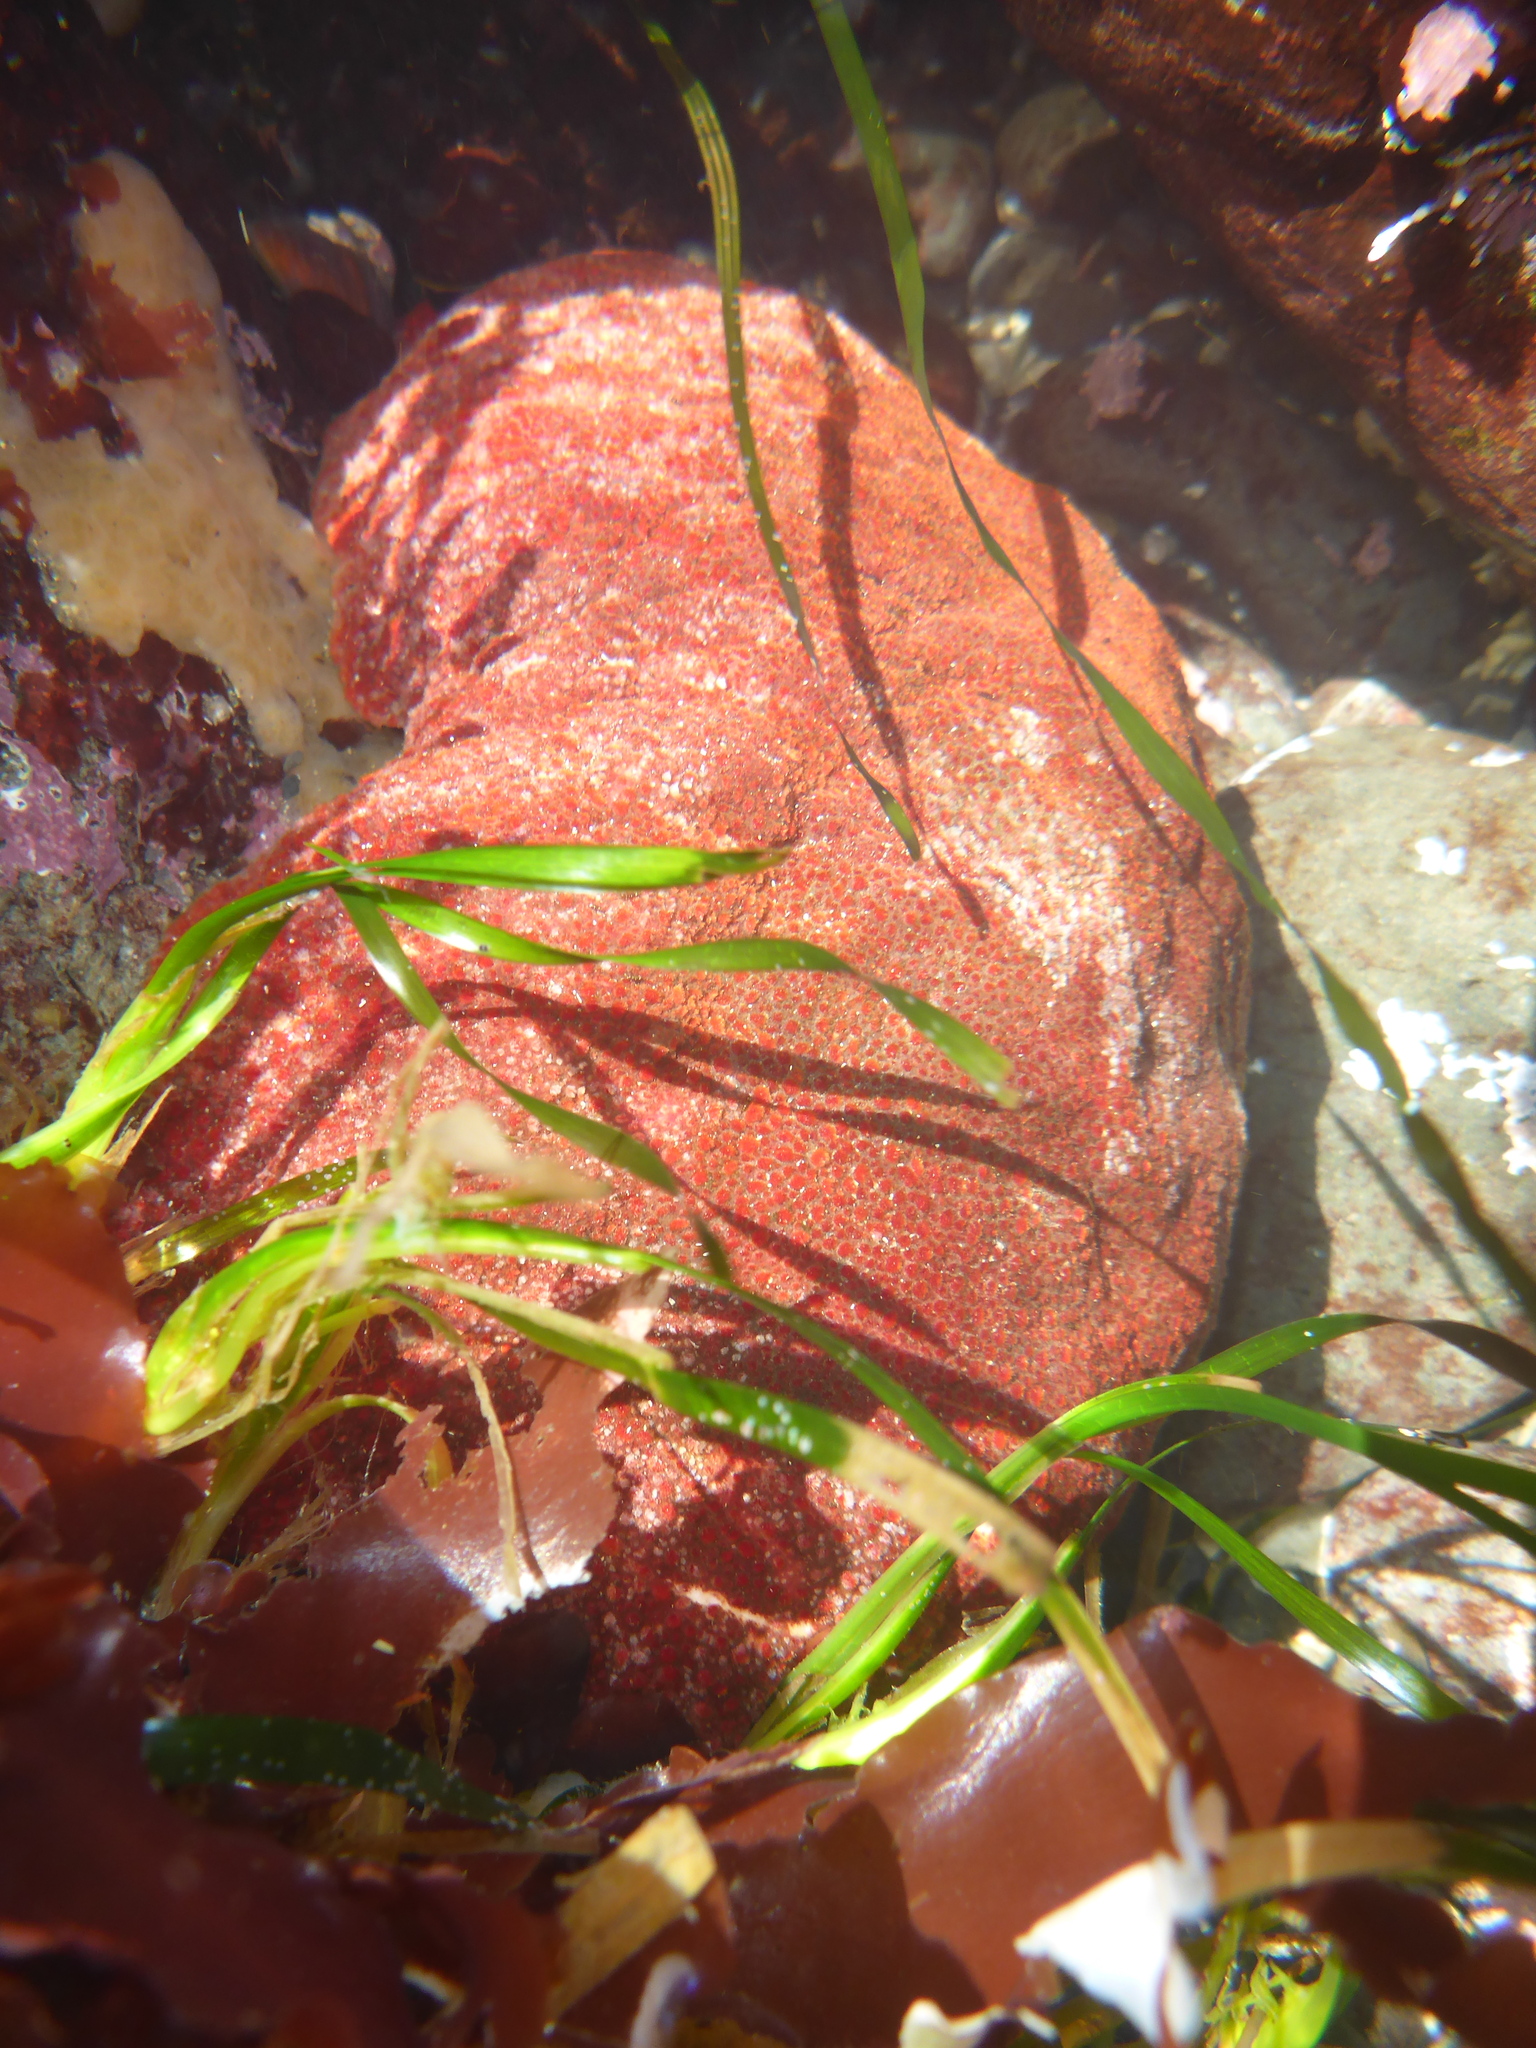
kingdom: Animalia
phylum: Mollusca
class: Polyplacophora
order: Chitonida
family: Acanthochitonidae
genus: Cryptochiton
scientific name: Cryptochiton stelleri
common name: Giant pacific chiton
